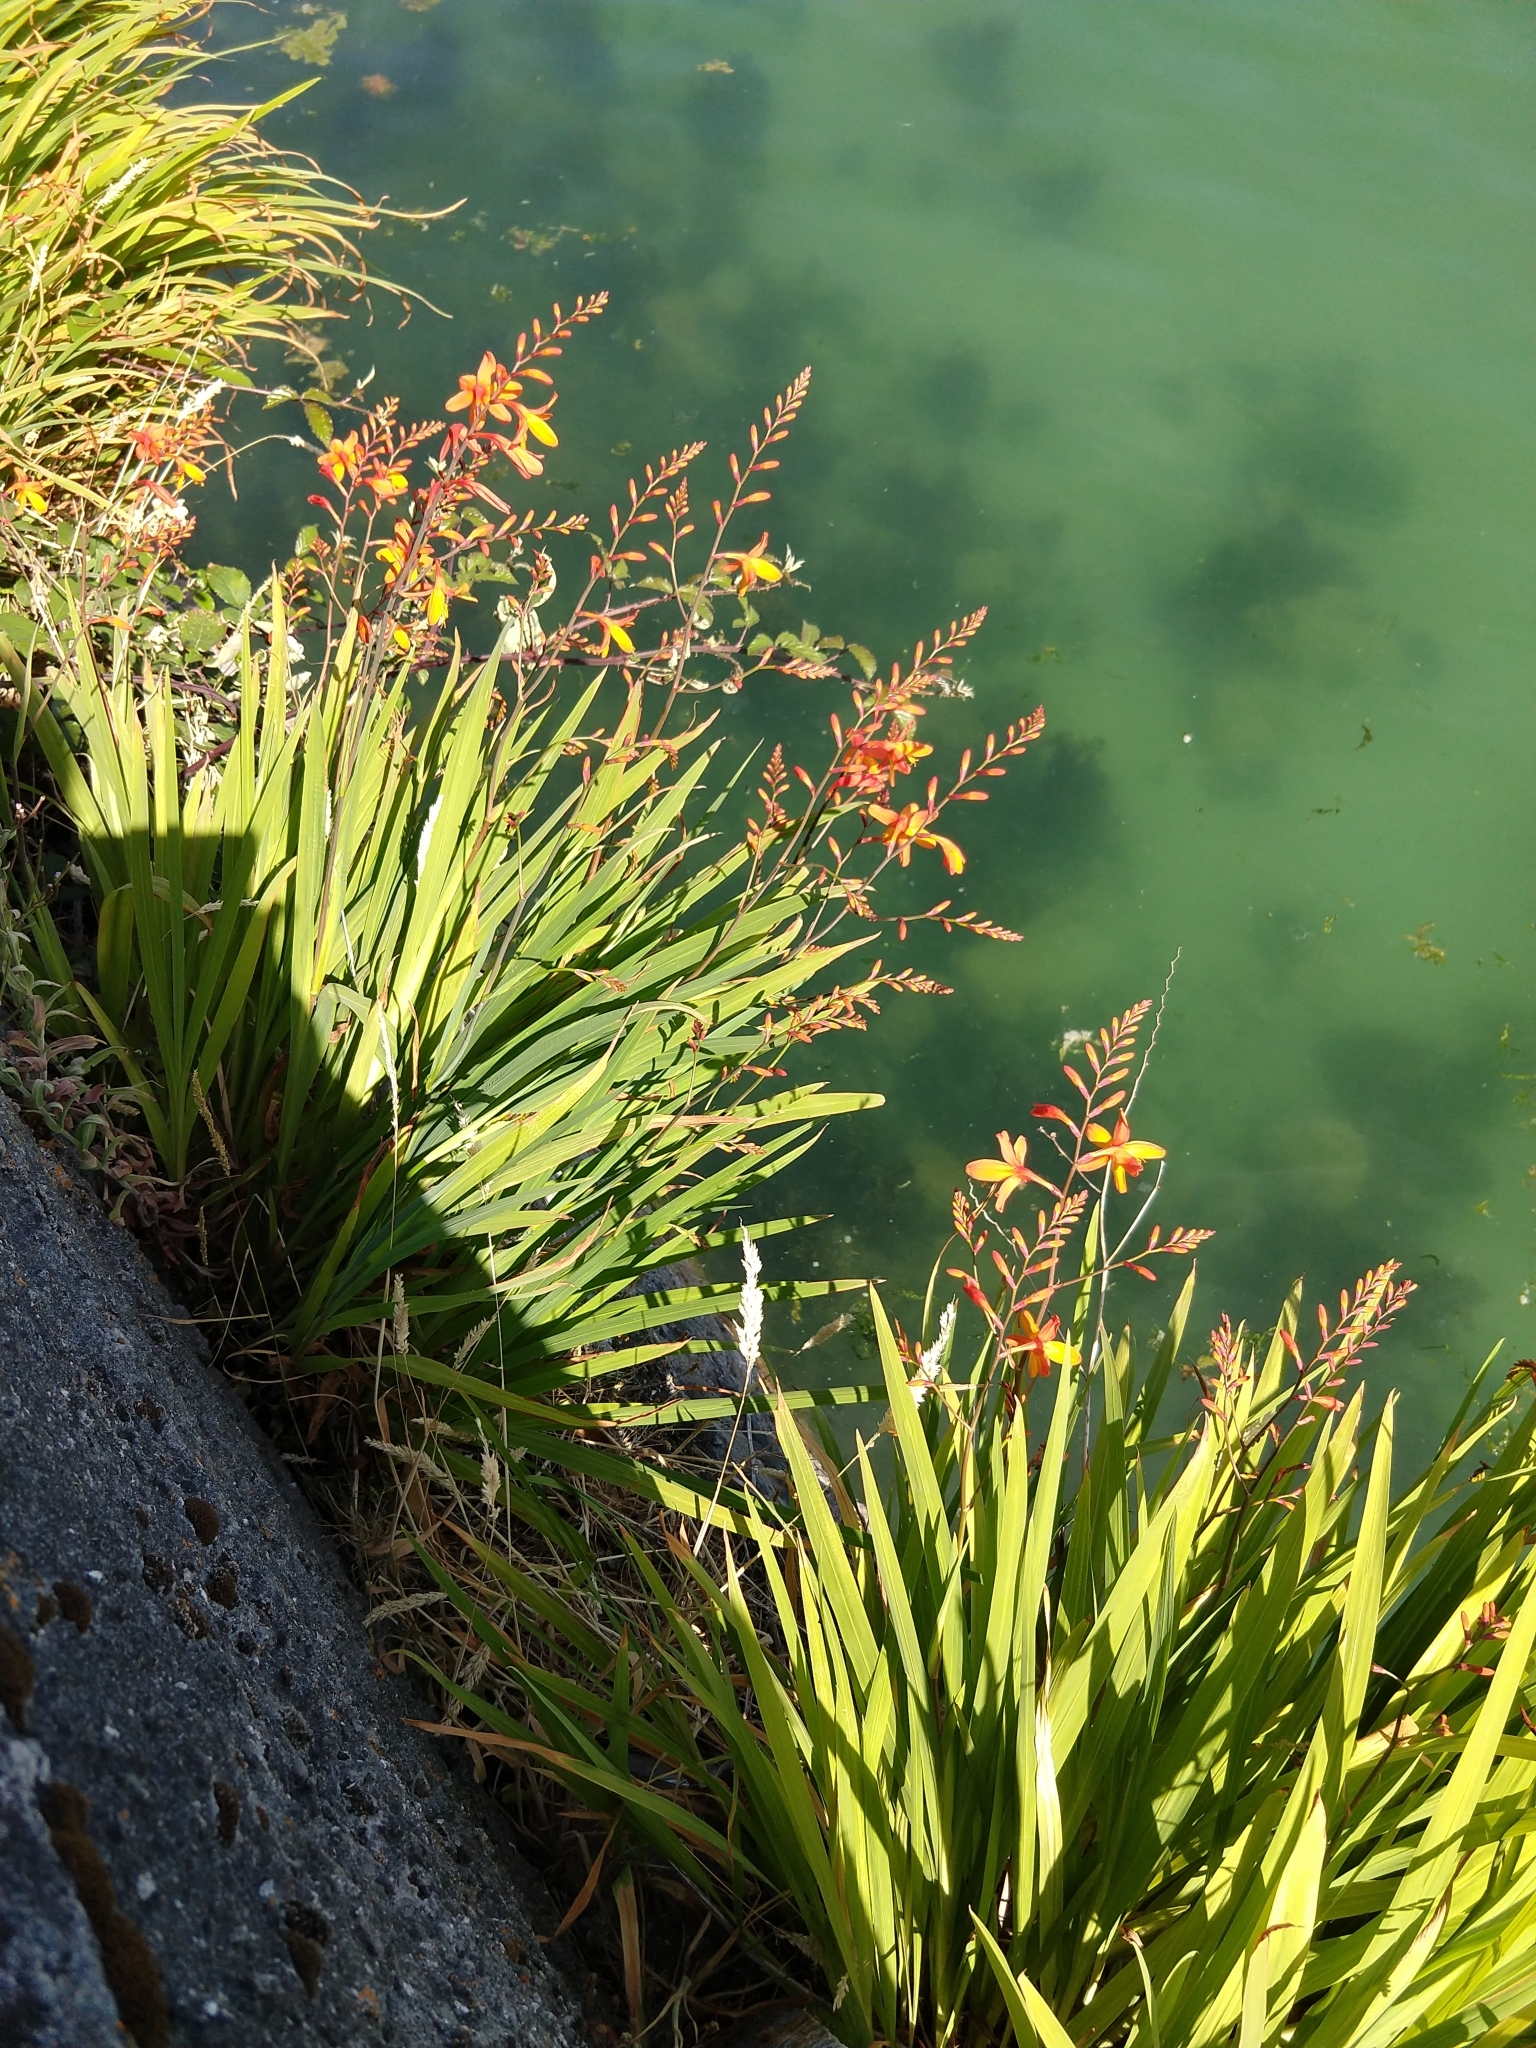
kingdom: Plantae
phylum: Tracheophyta
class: Liliopsida
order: Asparagales
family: Iridaceae
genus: Crocosmia
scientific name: Crocosmia crocosmiiflora
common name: Montbretia
